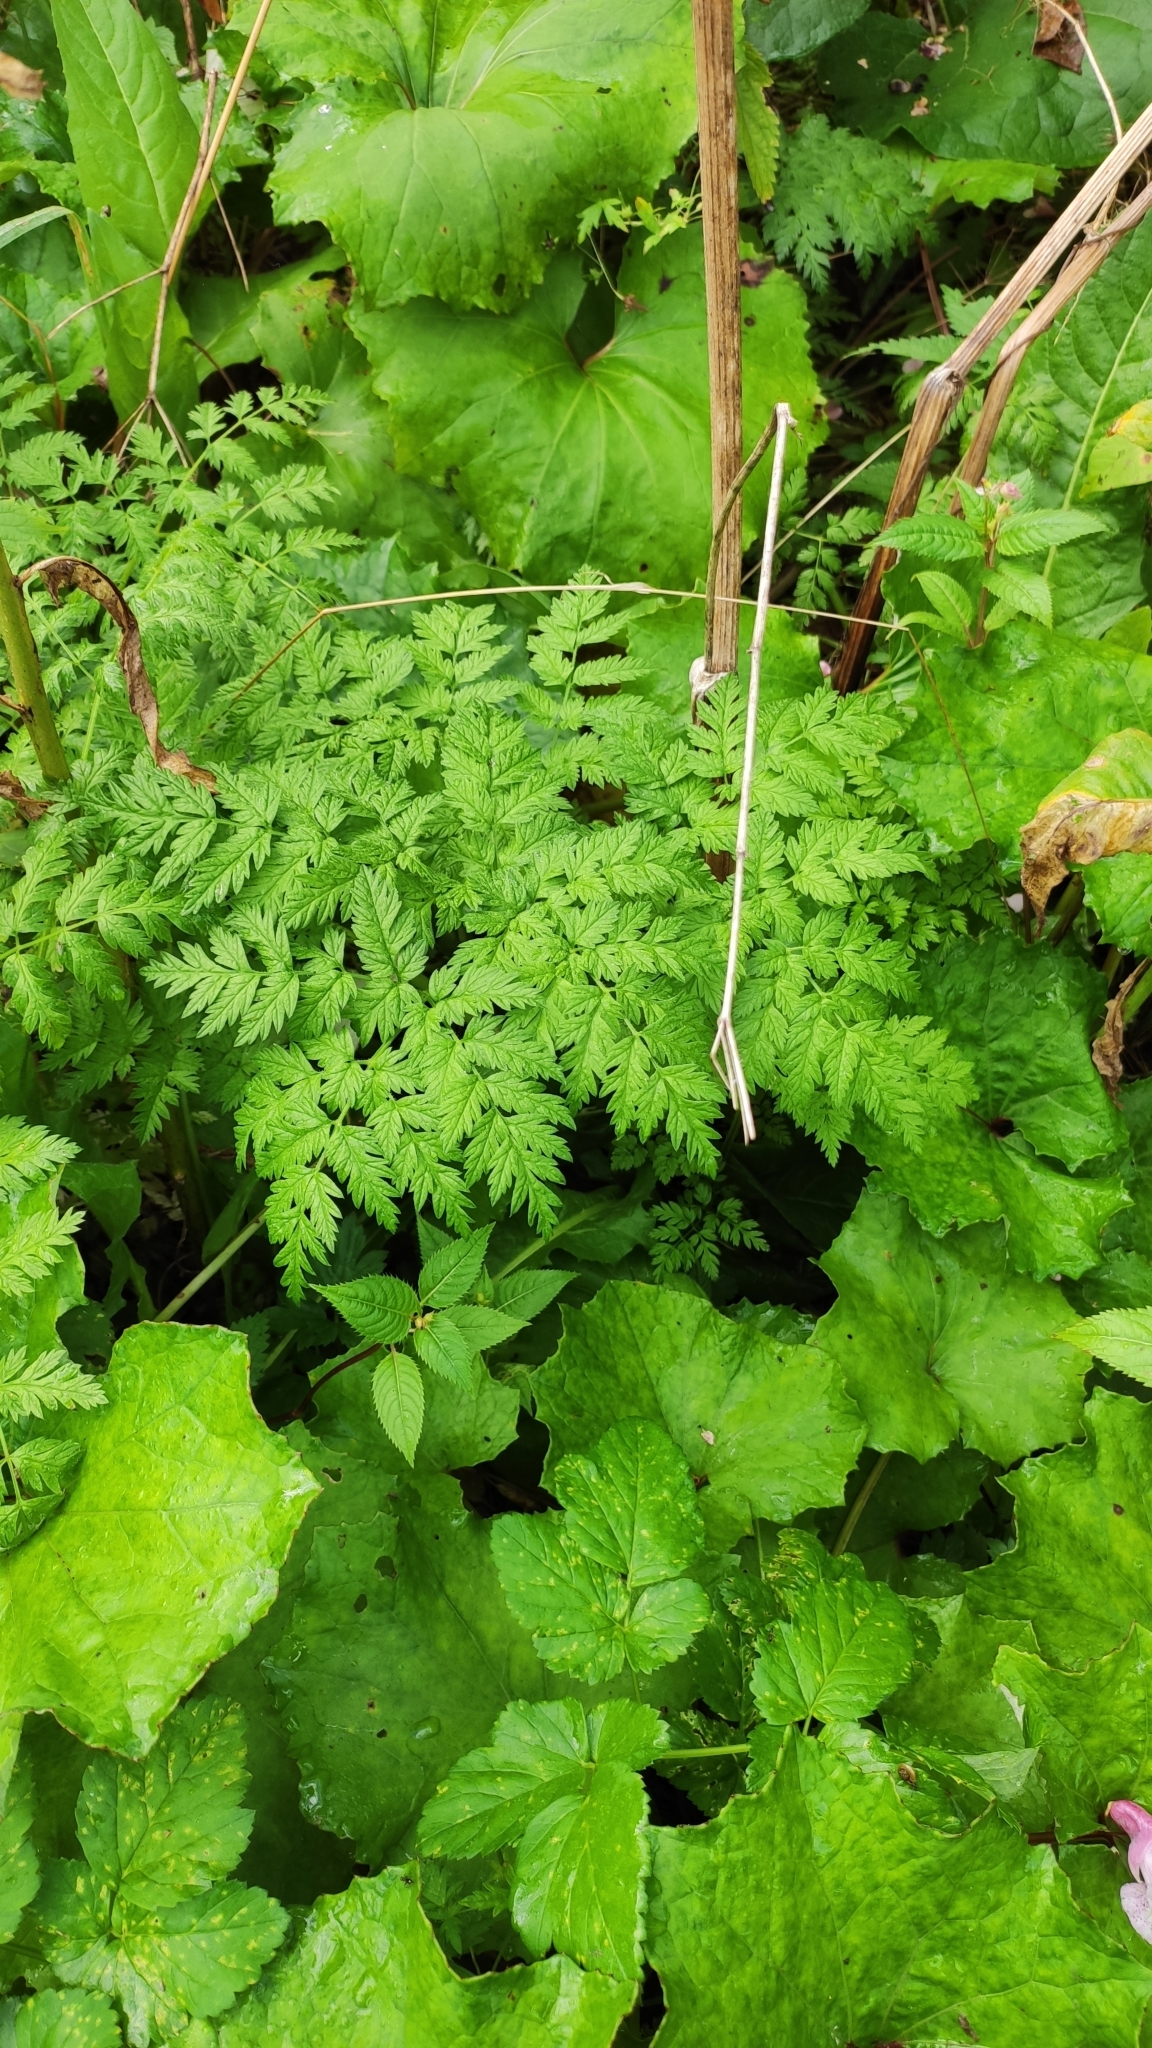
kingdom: Plantae
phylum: Tracheophyta
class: Magnoliopsida
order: Apiales
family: Apiaceae
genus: Anthriscus
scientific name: Anthriscus sylvestris
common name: Cow parsley
